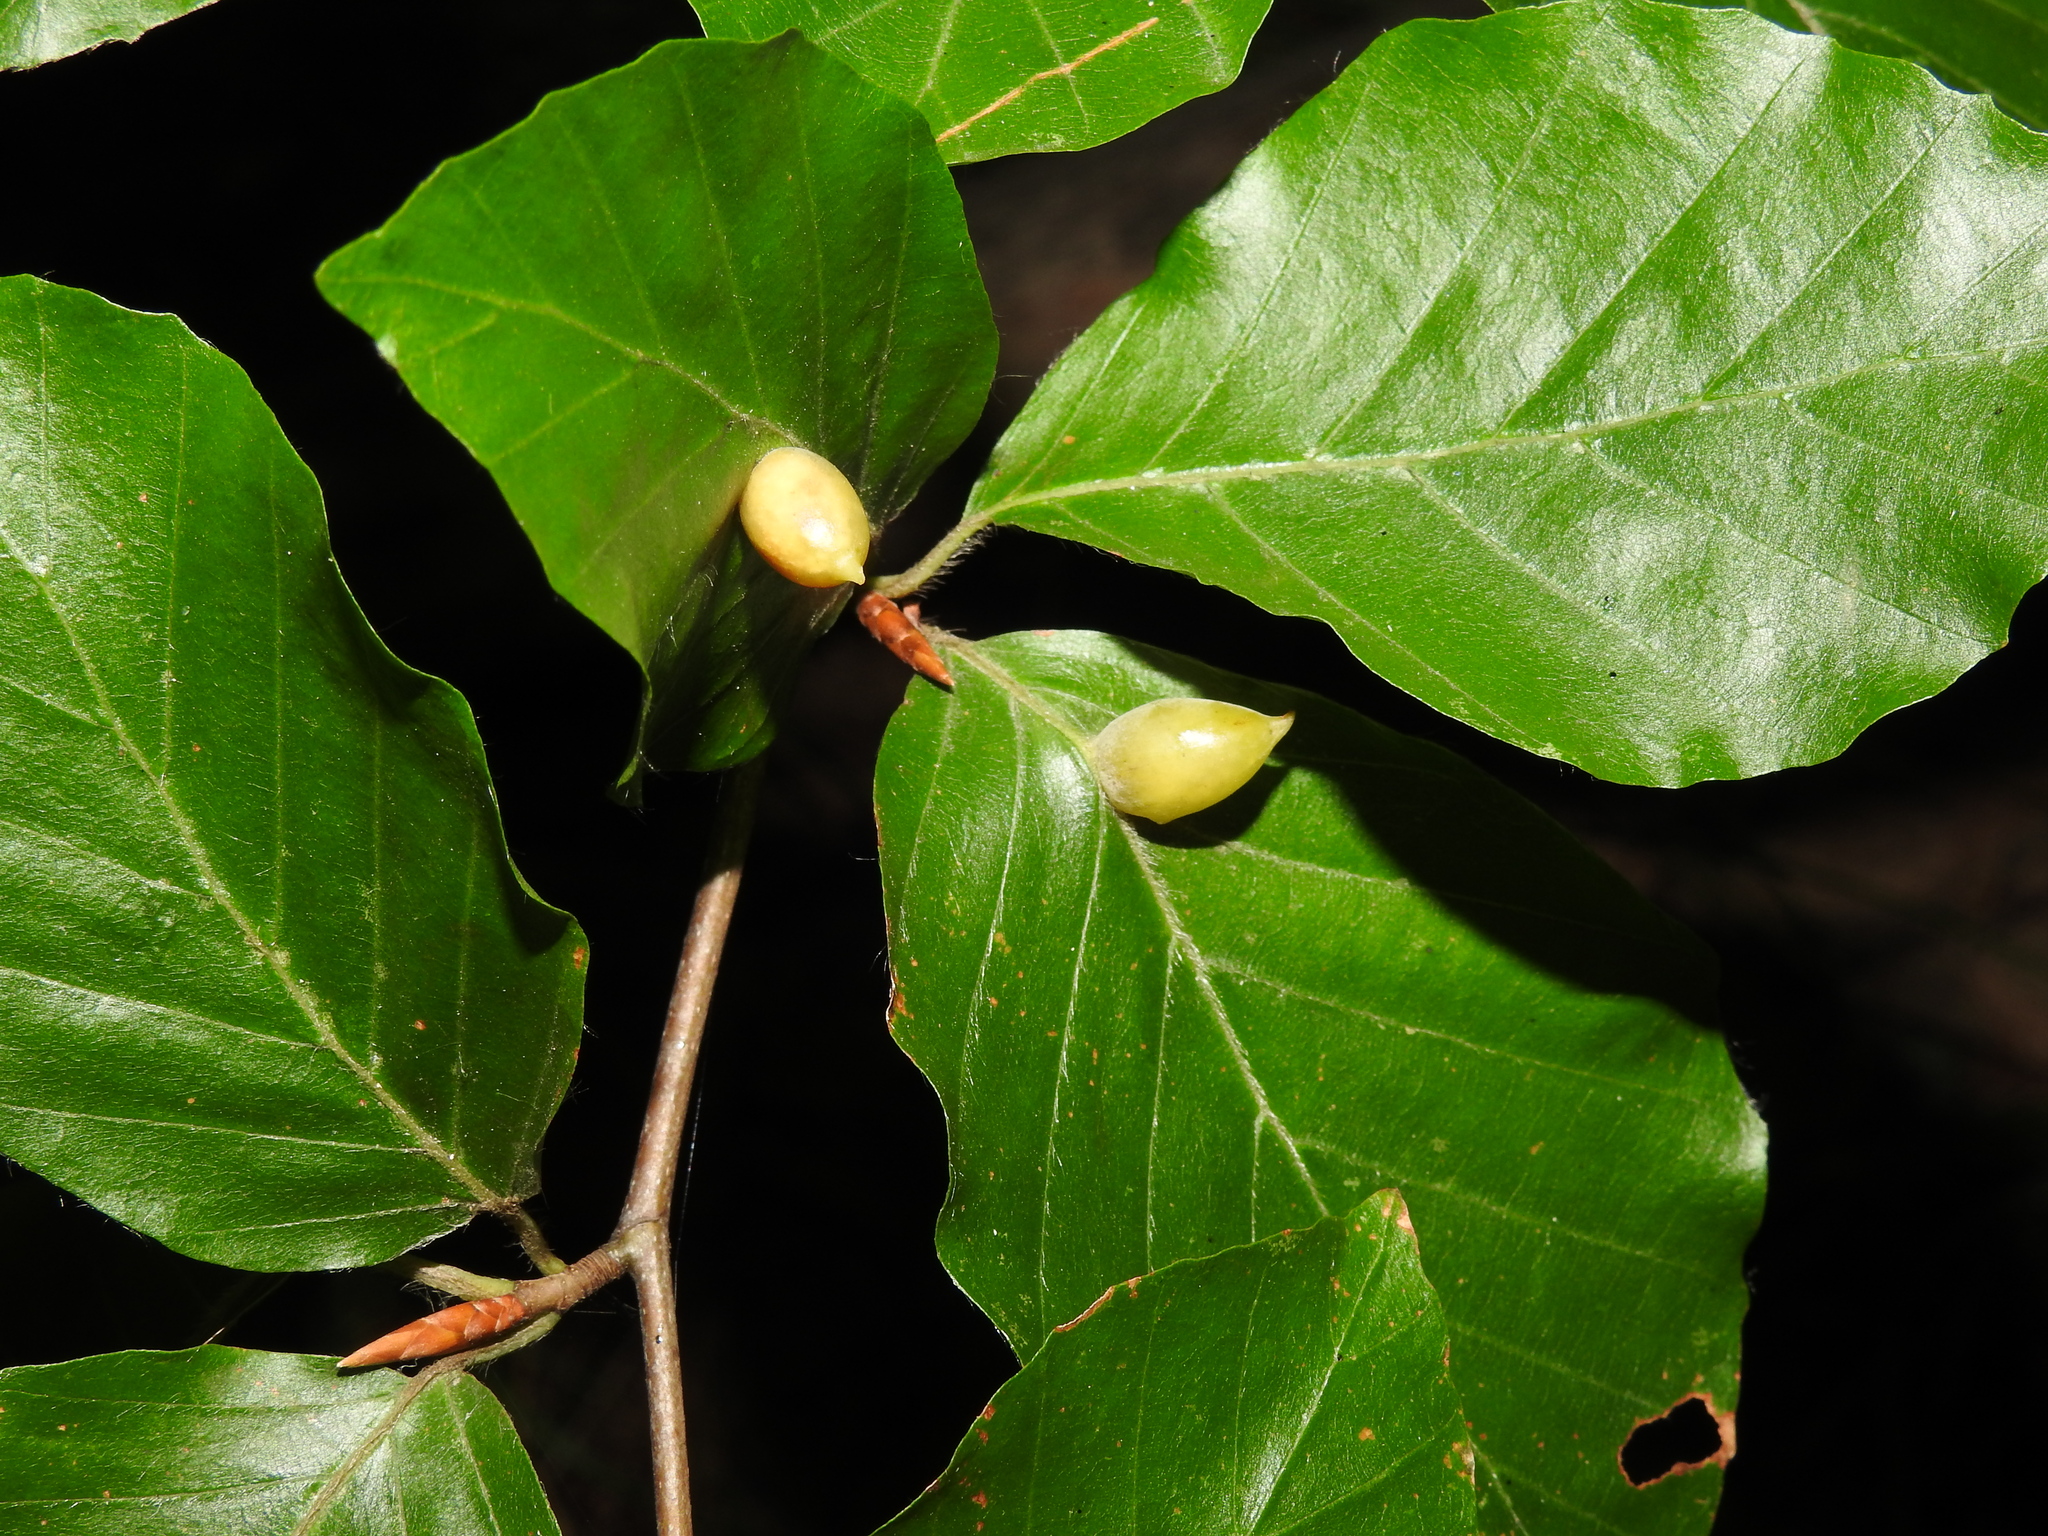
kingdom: Animalia
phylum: Arthropoda
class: Insecta
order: Diptera
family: Cecidomyiidae
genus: Mikiola
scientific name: Mikiola fagi
